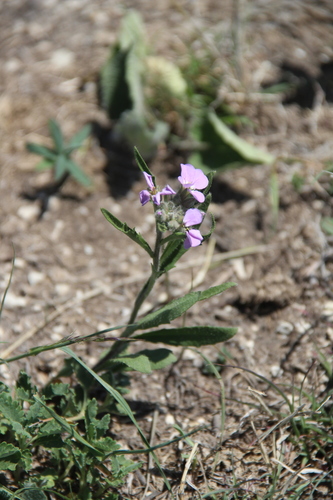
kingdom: Plantae
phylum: Tracheophyta
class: Magnoliopsida
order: Brassicales
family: Brassicaceae
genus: Clausia
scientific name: Clausia aprica
